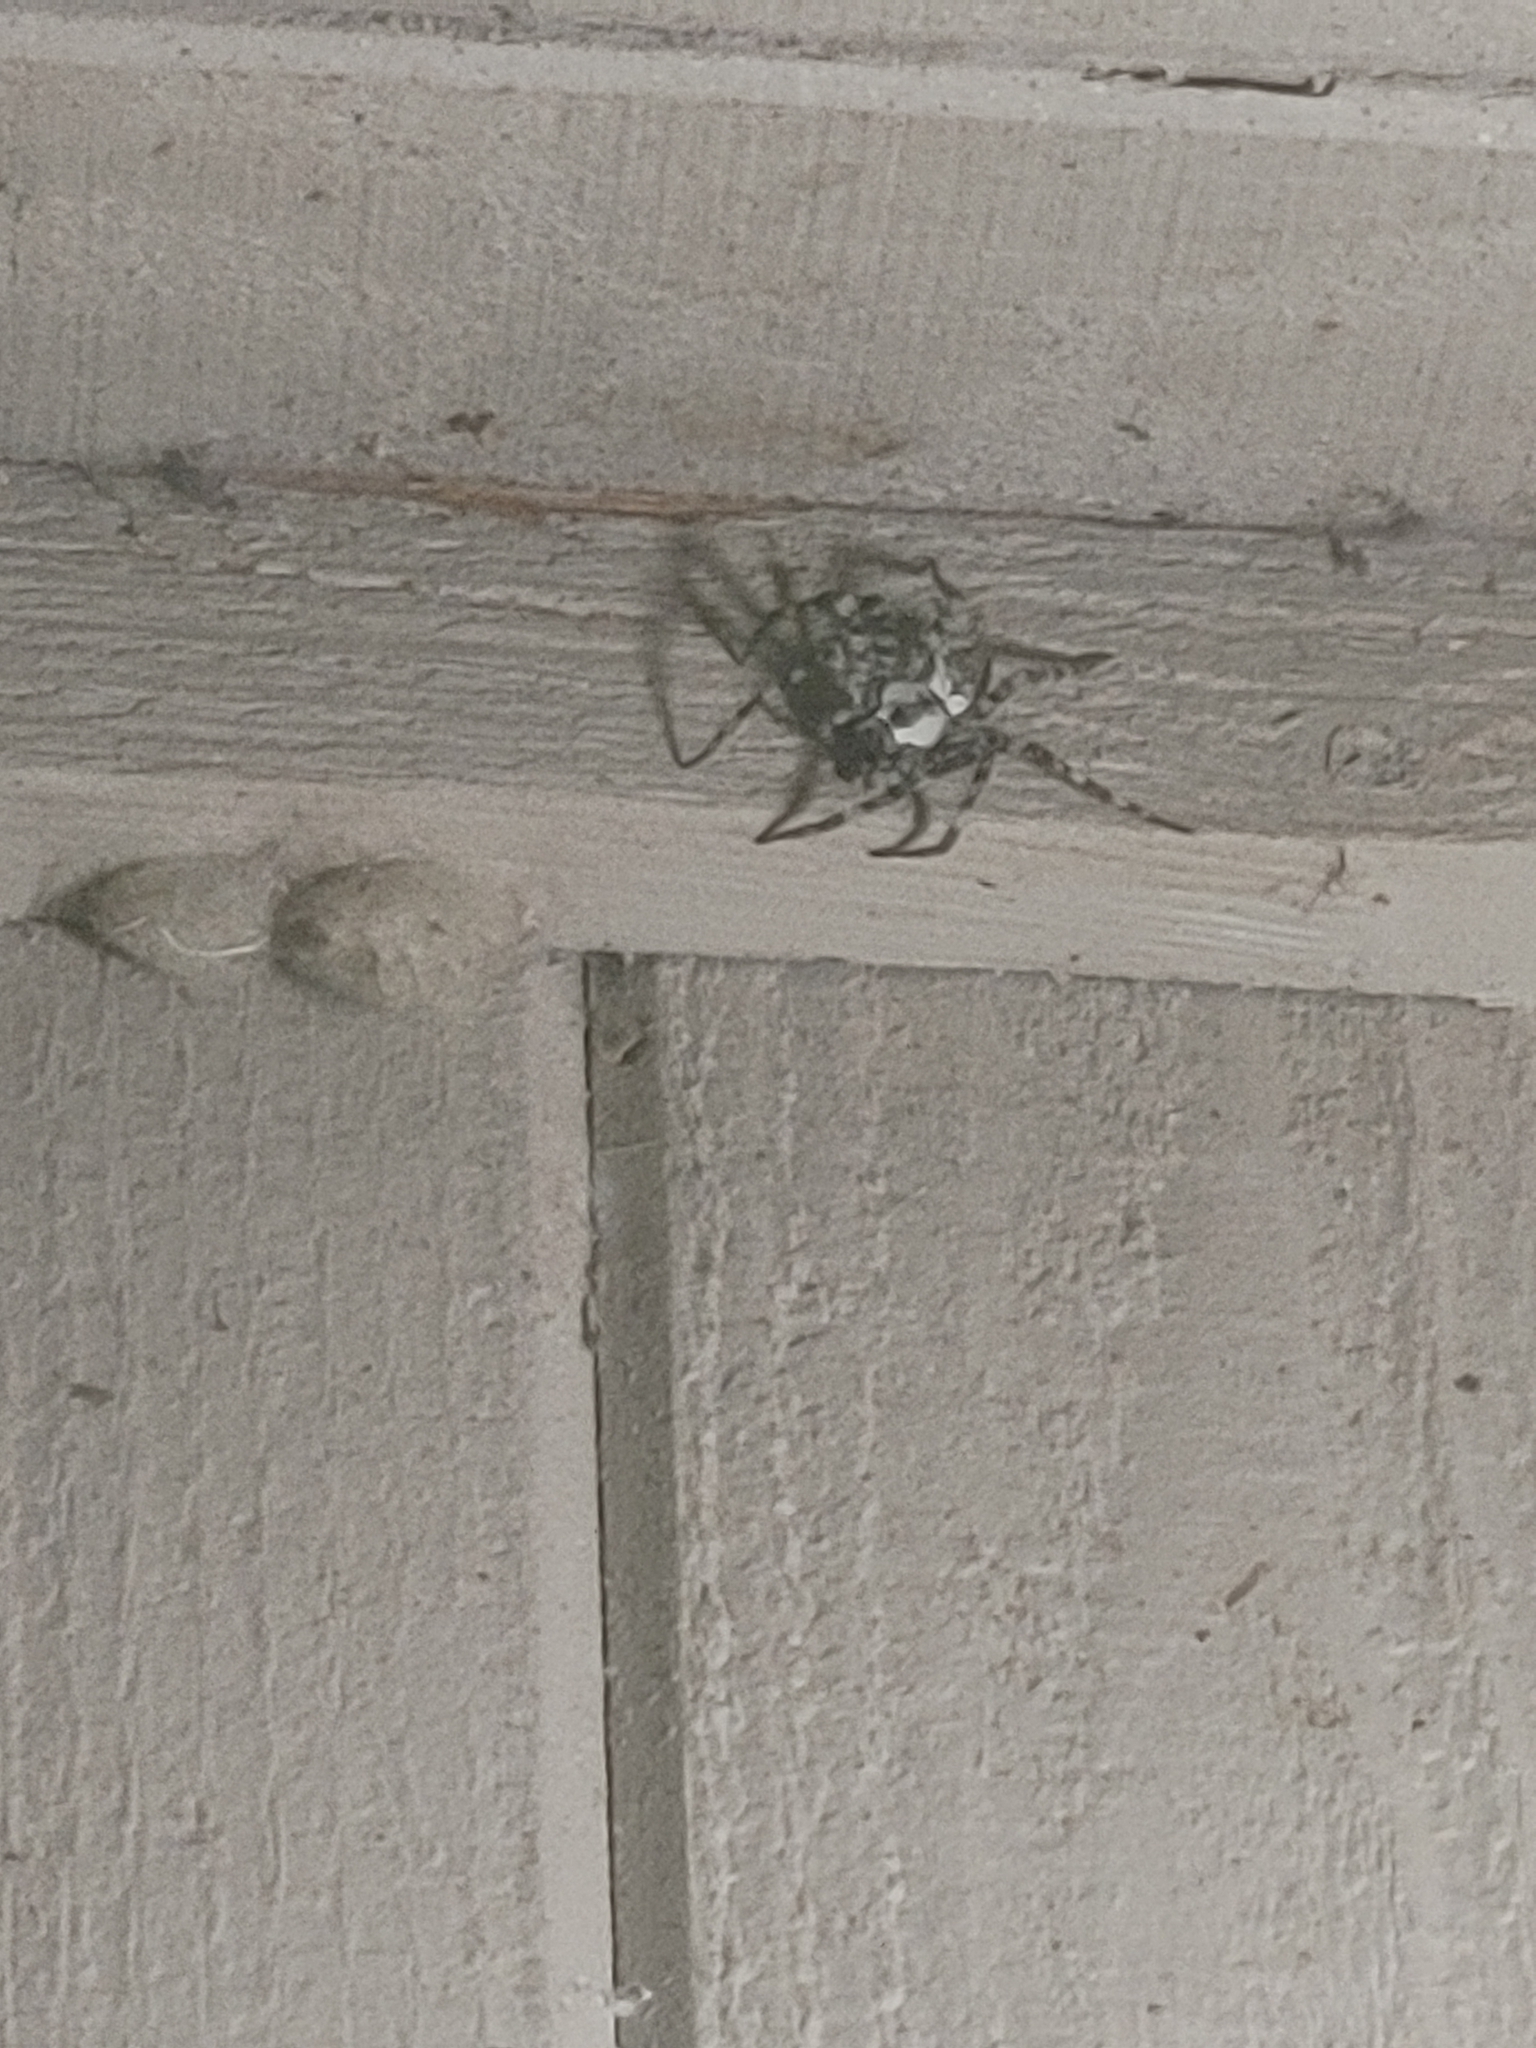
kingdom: Animalia
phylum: Arthropoda
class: Arachnida
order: Araneae
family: Pisauridae
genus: Dolomedes
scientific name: Dolomedes albineus
